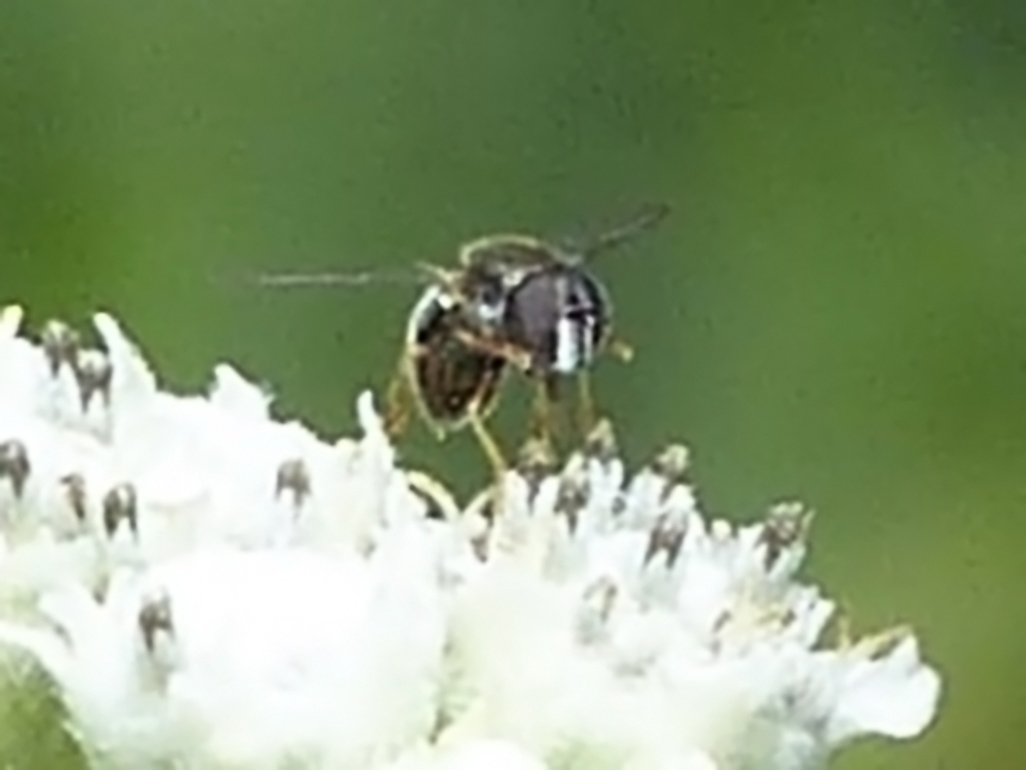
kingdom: Animalia
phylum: Arthropoda
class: Insecta
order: Diptera
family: Syrphidae
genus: Paragus
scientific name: Paragus haemorrhous
